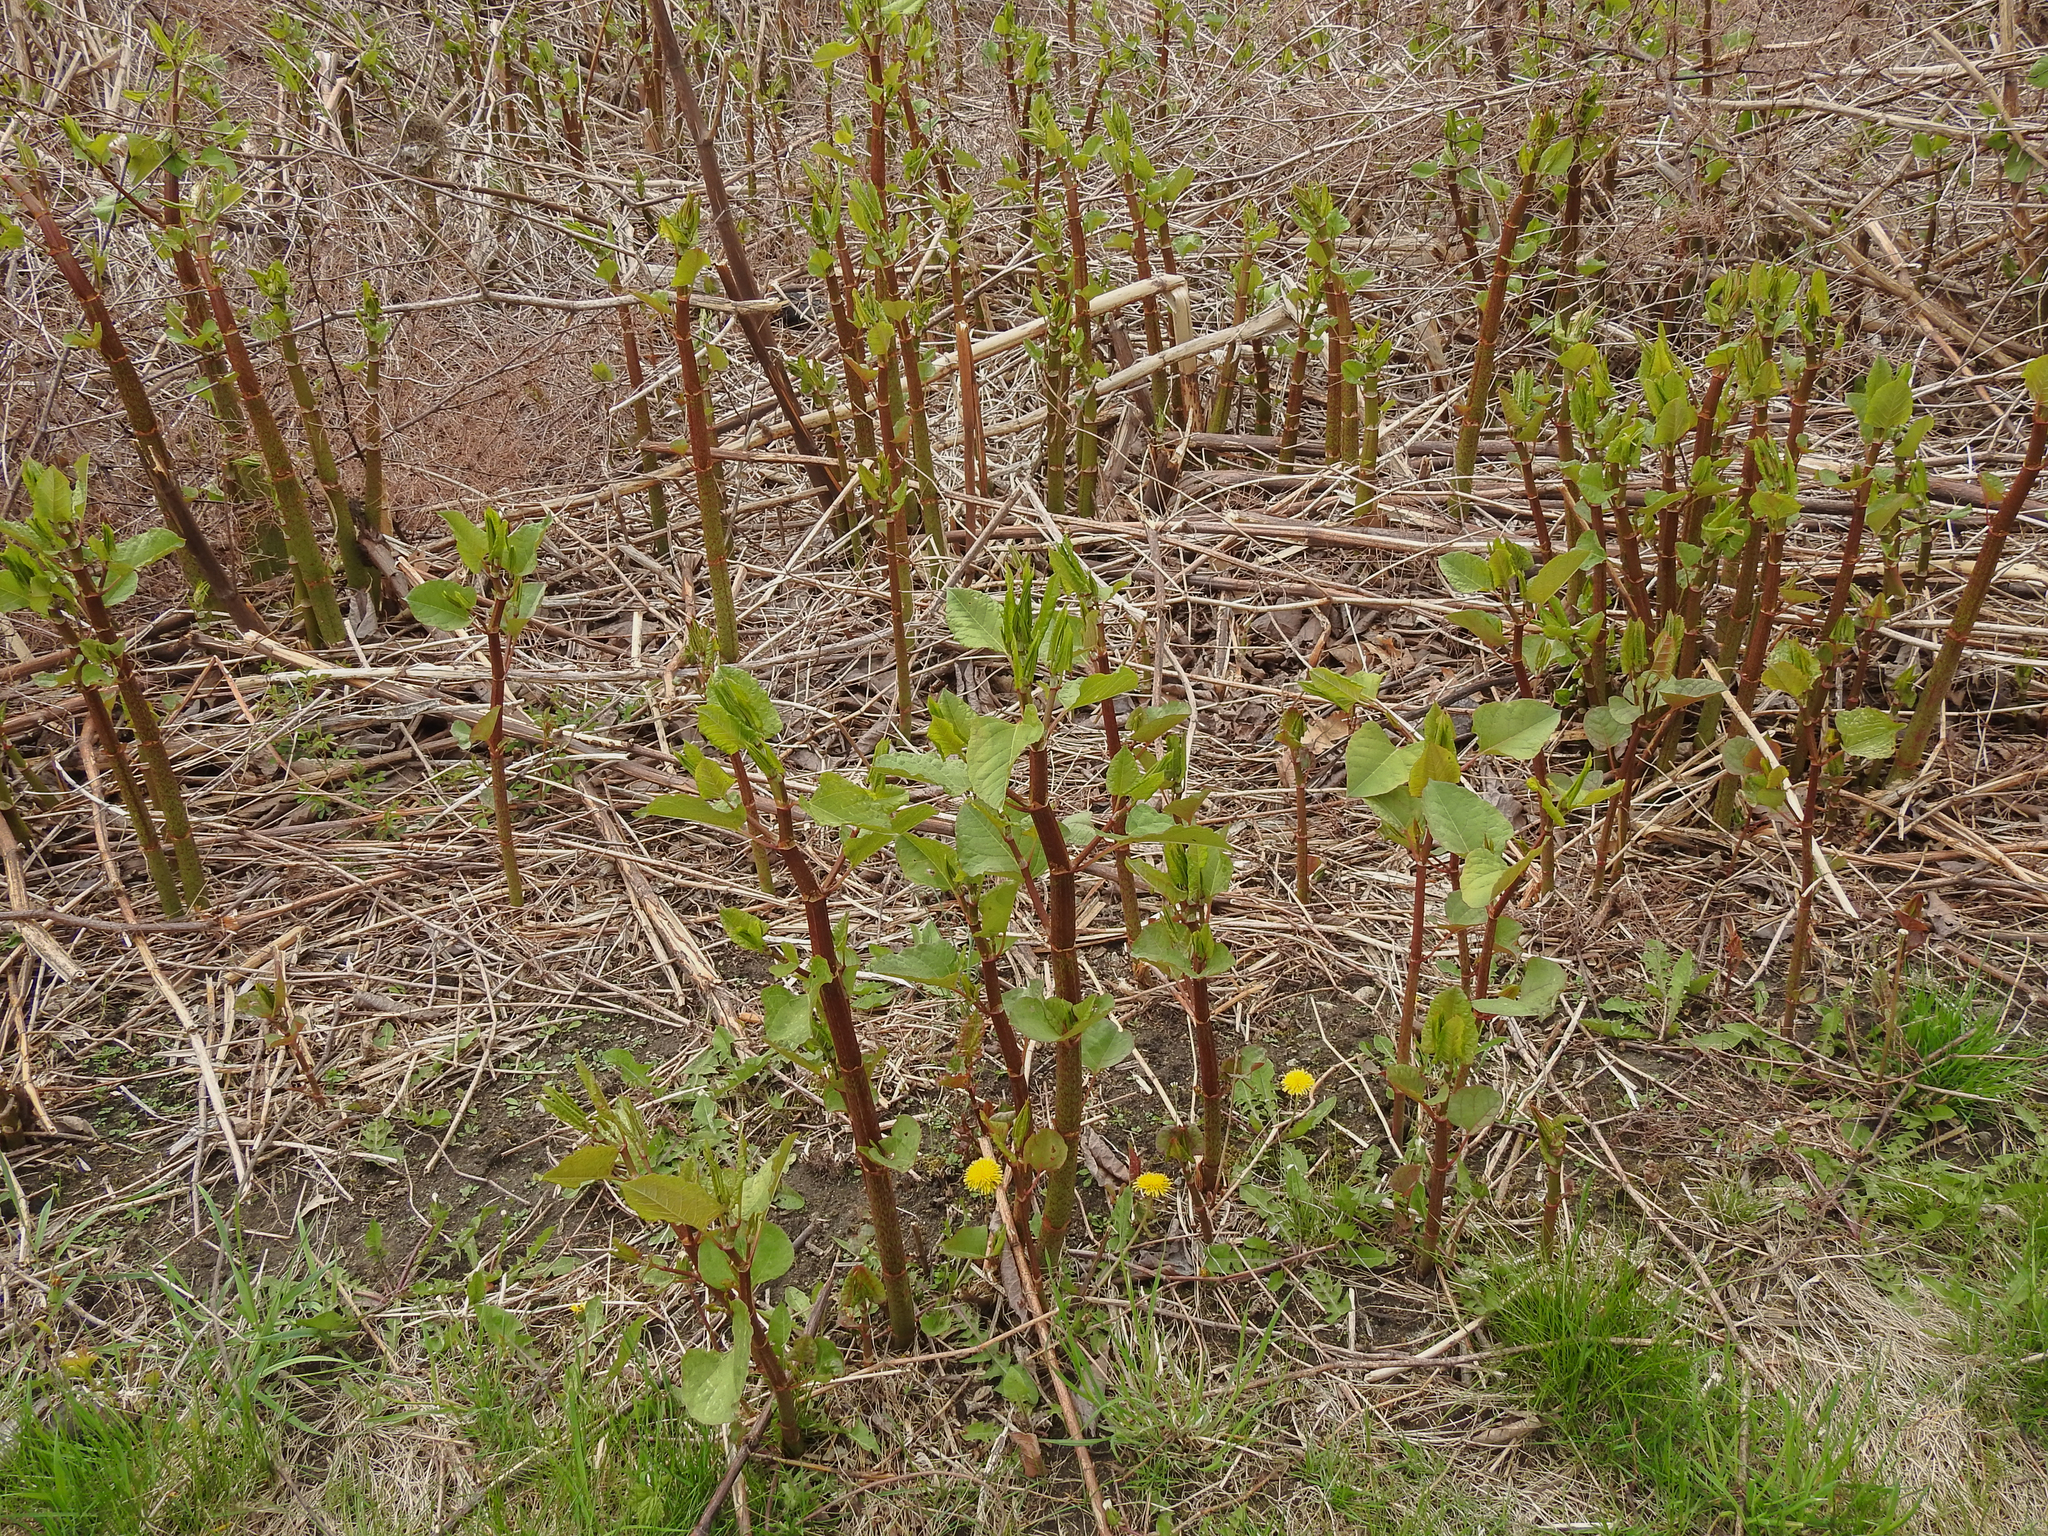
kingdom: Plantae
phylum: Tracheophyta
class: Magnoliopsida
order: Caryophyllales
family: Polygonaceae
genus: Reynoutria
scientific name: Reynoutria japonica
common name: Japanese knotweed
